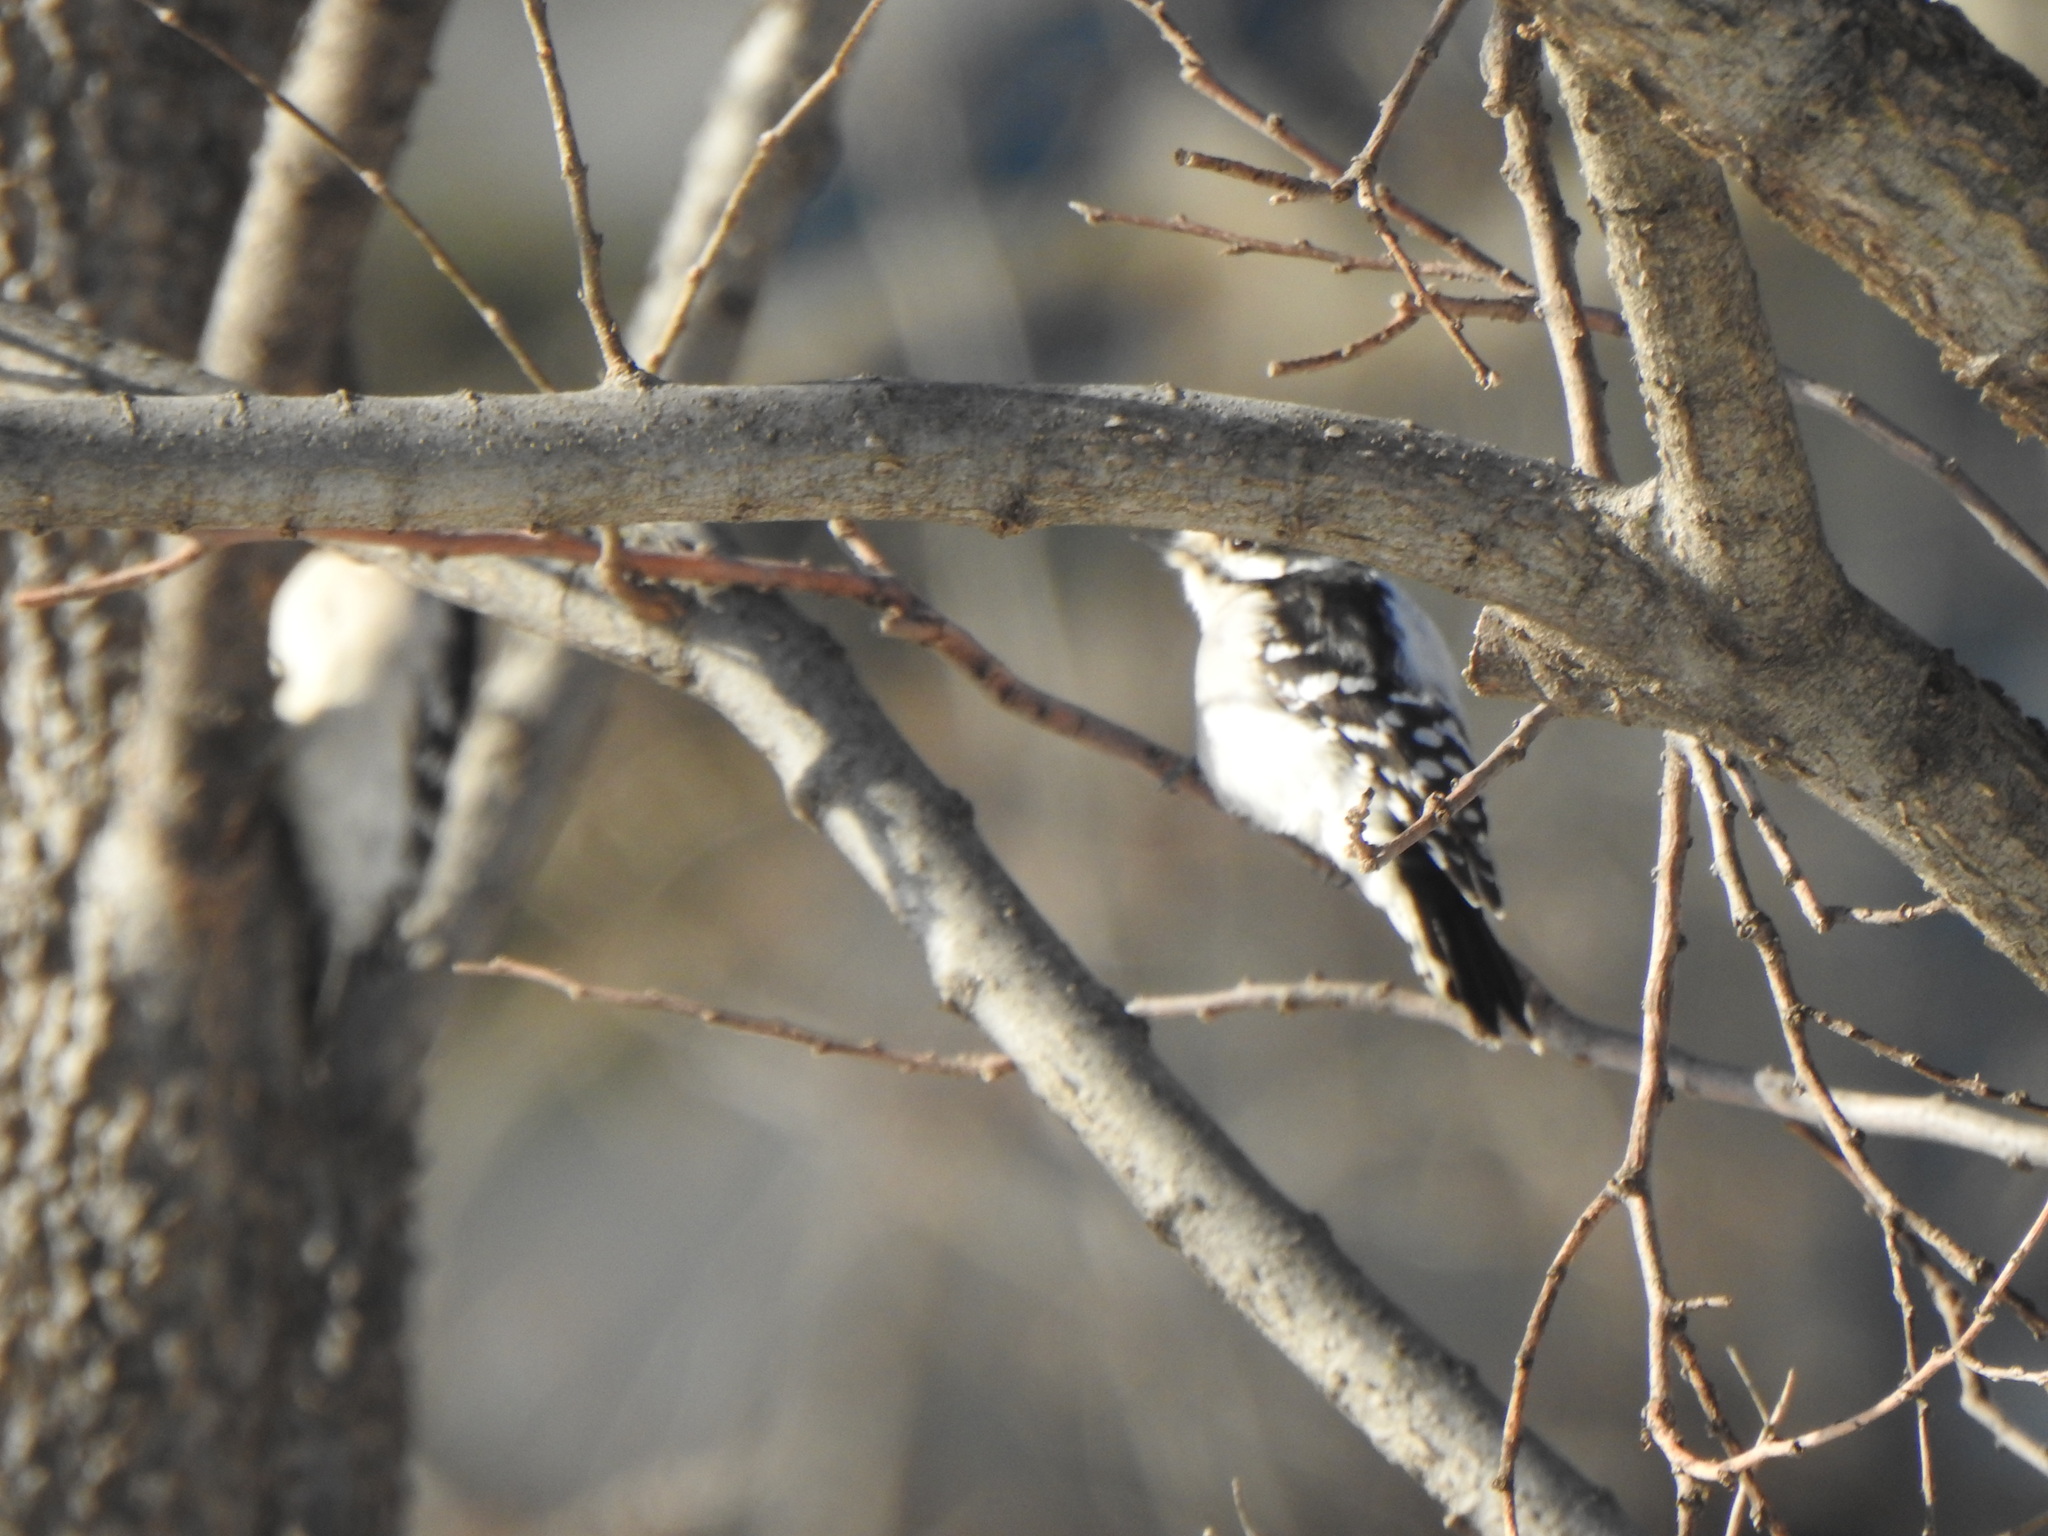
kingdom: Animalia
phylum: Chordata
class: Aves
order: Piciformes
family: Picidae
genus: Dryobates
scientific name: Dryobates pubescens
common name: Downy woodpecker
